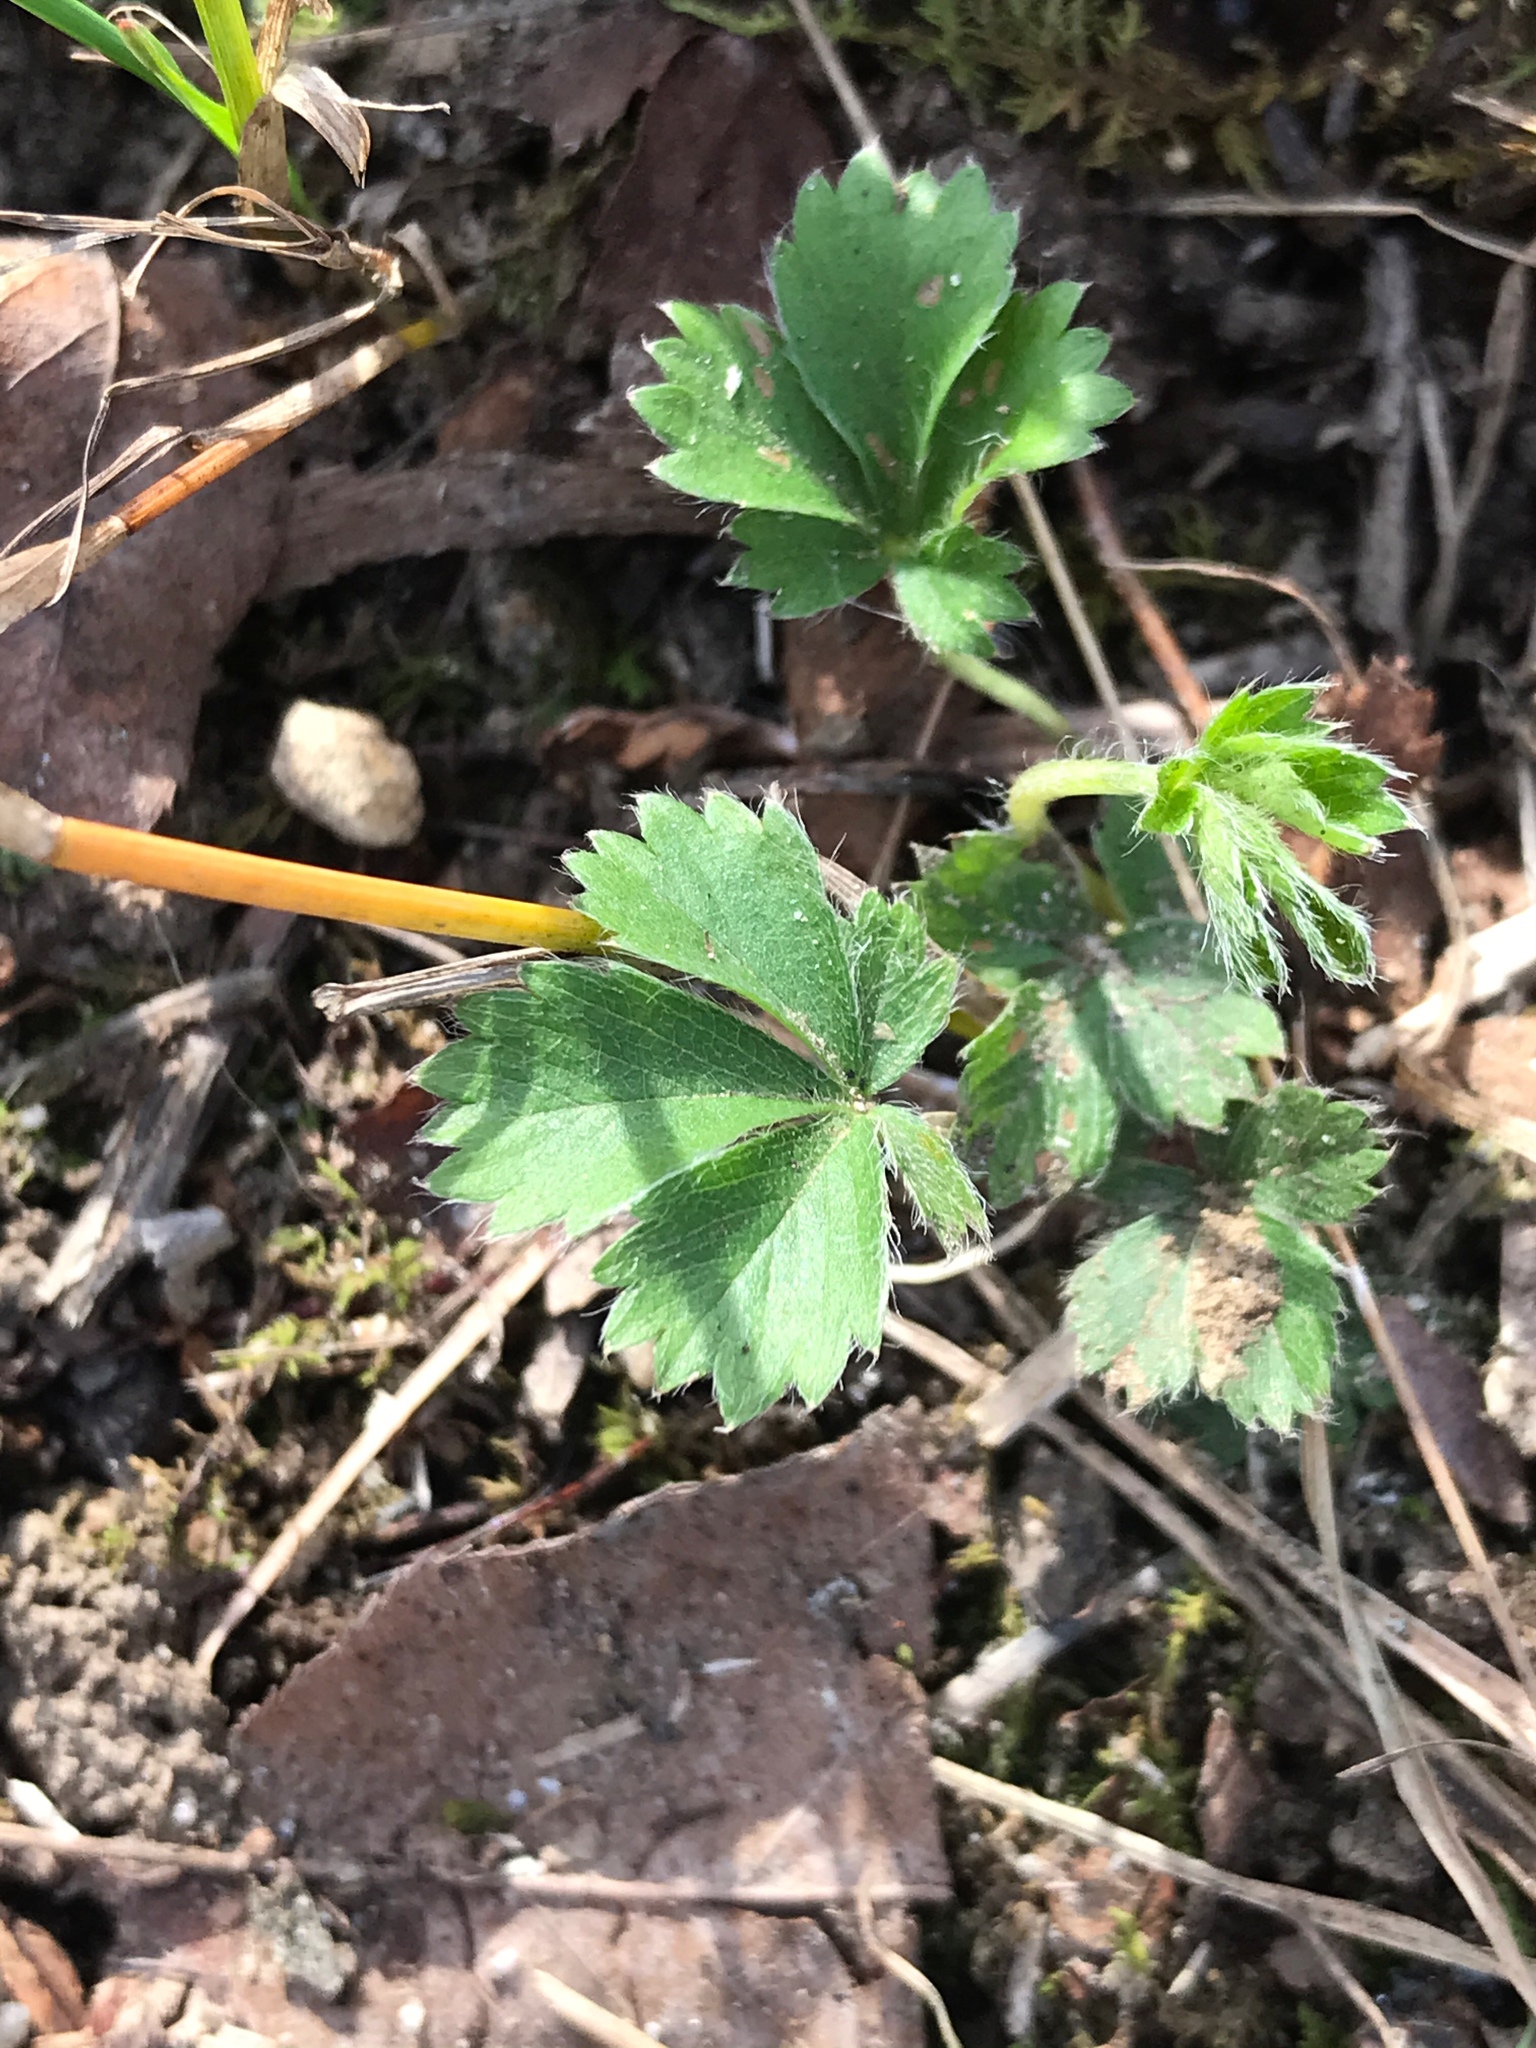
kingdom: Plantae
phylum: Tracheophyta
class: Magnoliopsida
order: Rosales
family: Rosaceae
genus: Potentilla
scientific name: Potentilla canadensis
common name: Canada cinquefoil
